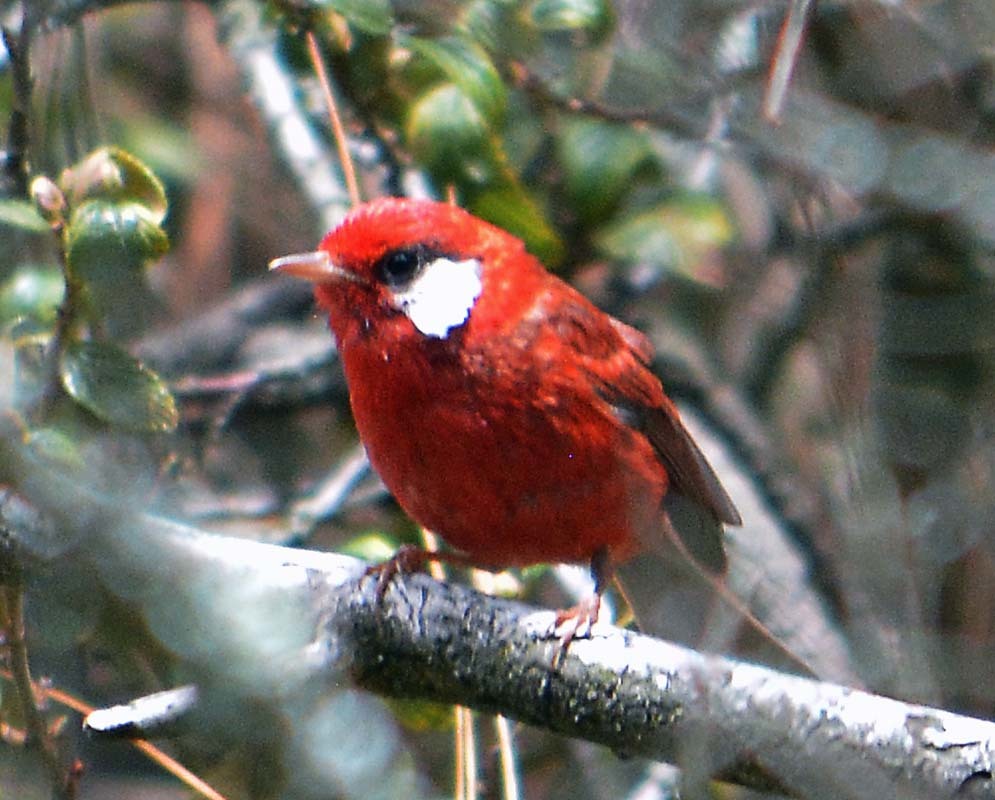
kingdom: Animalia
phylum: Chordata
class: Aves
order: Passeriformes
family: Parulidae
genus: Cardellina
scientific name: Cardellina rubra
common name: Red warbler
